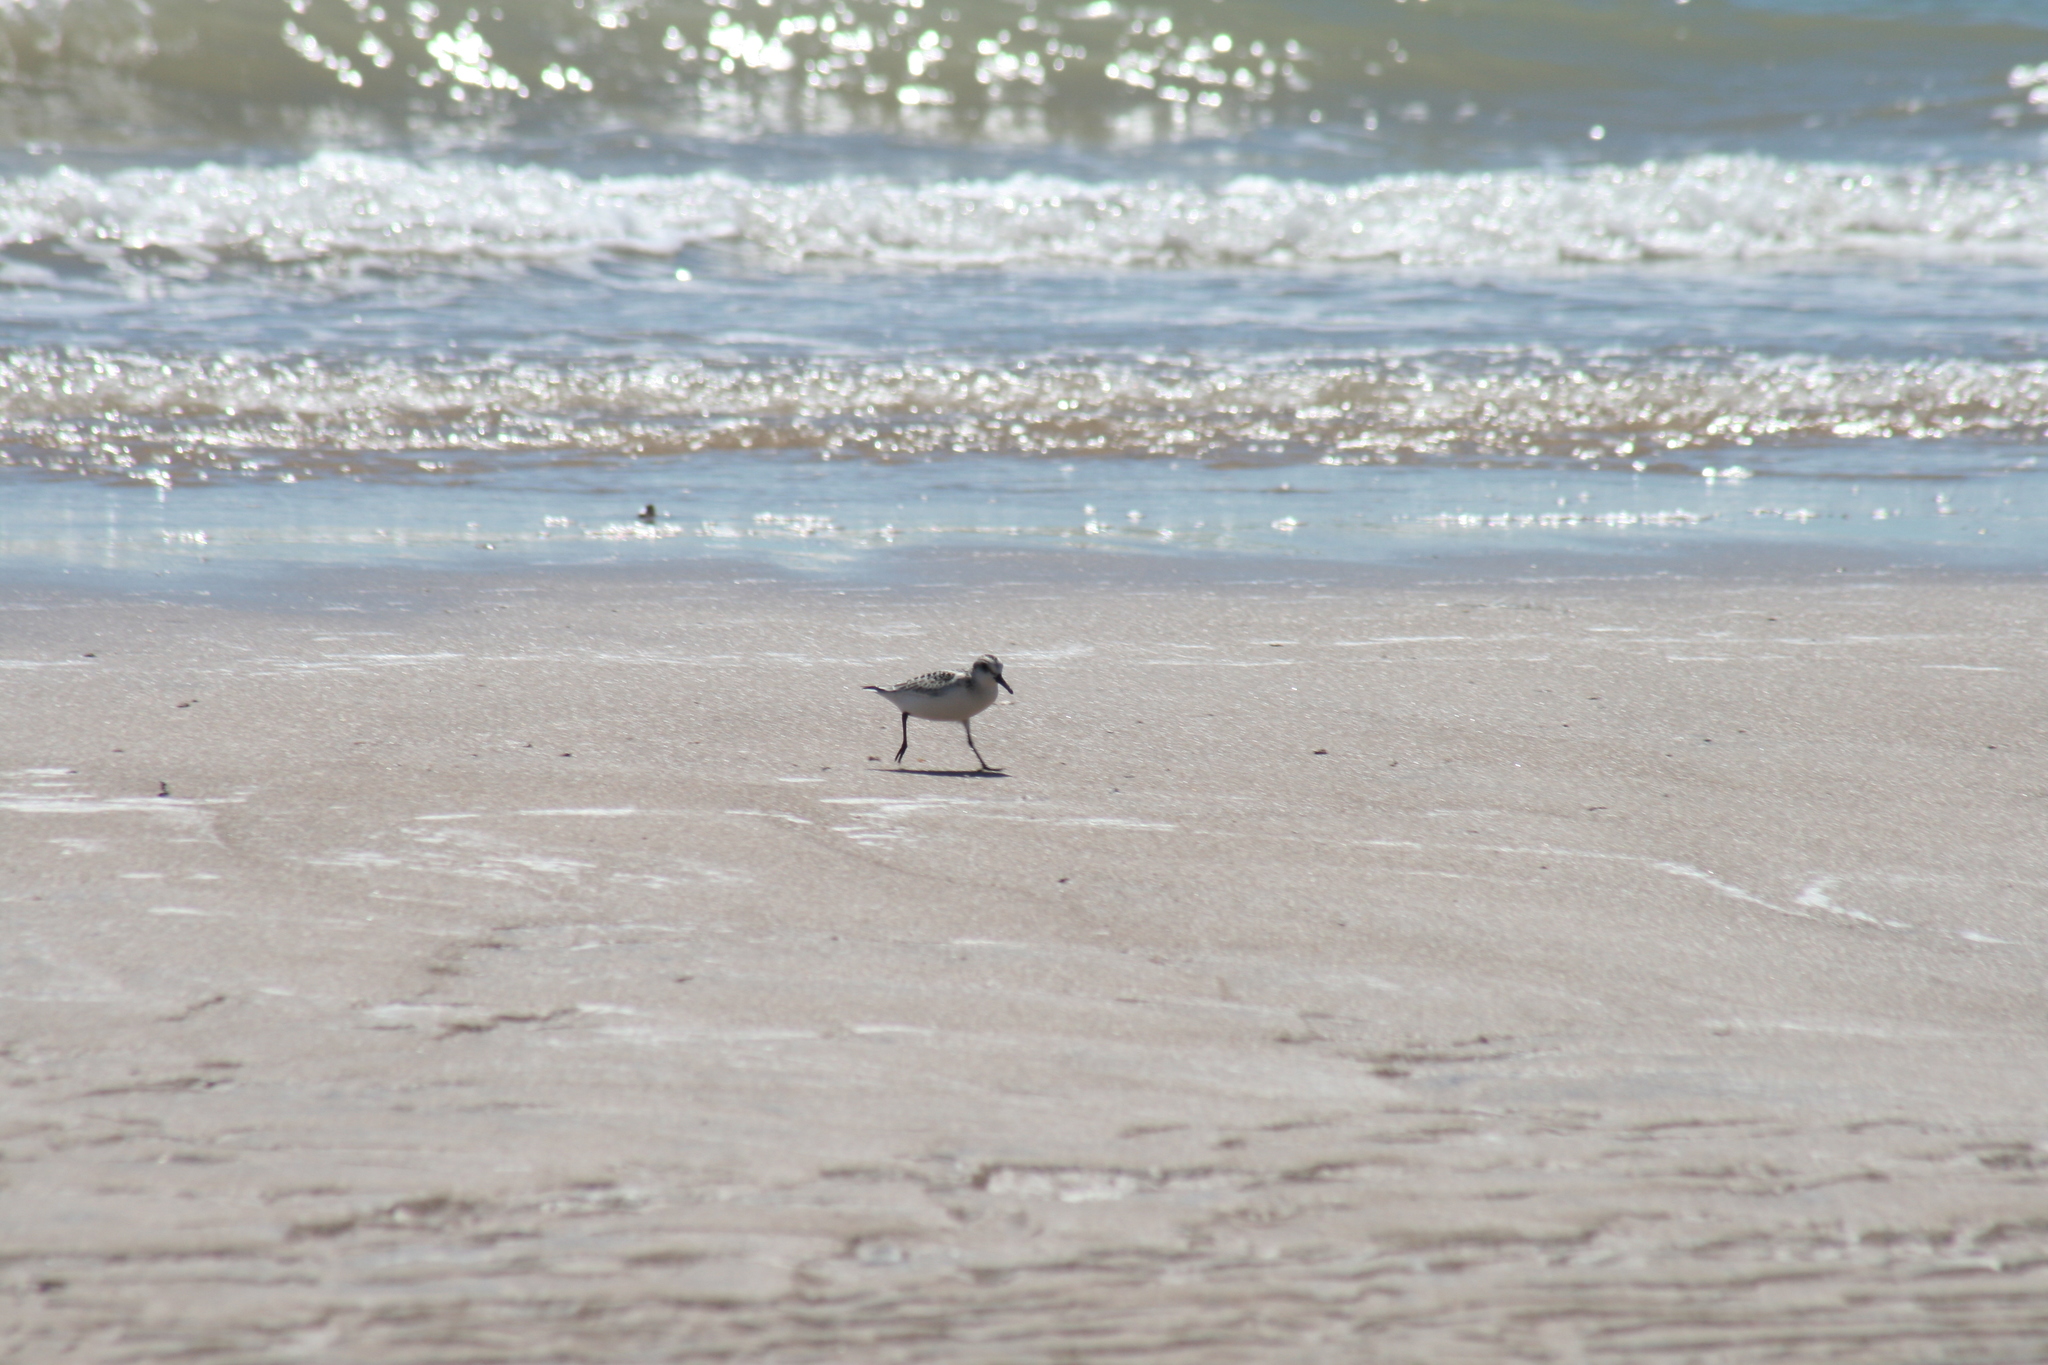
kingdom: Animalia
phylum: Chordata
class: Aves
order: Charadriiformes
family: Scolopacidae
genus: Calidris
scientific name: Calidris alba
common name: Sanderling
